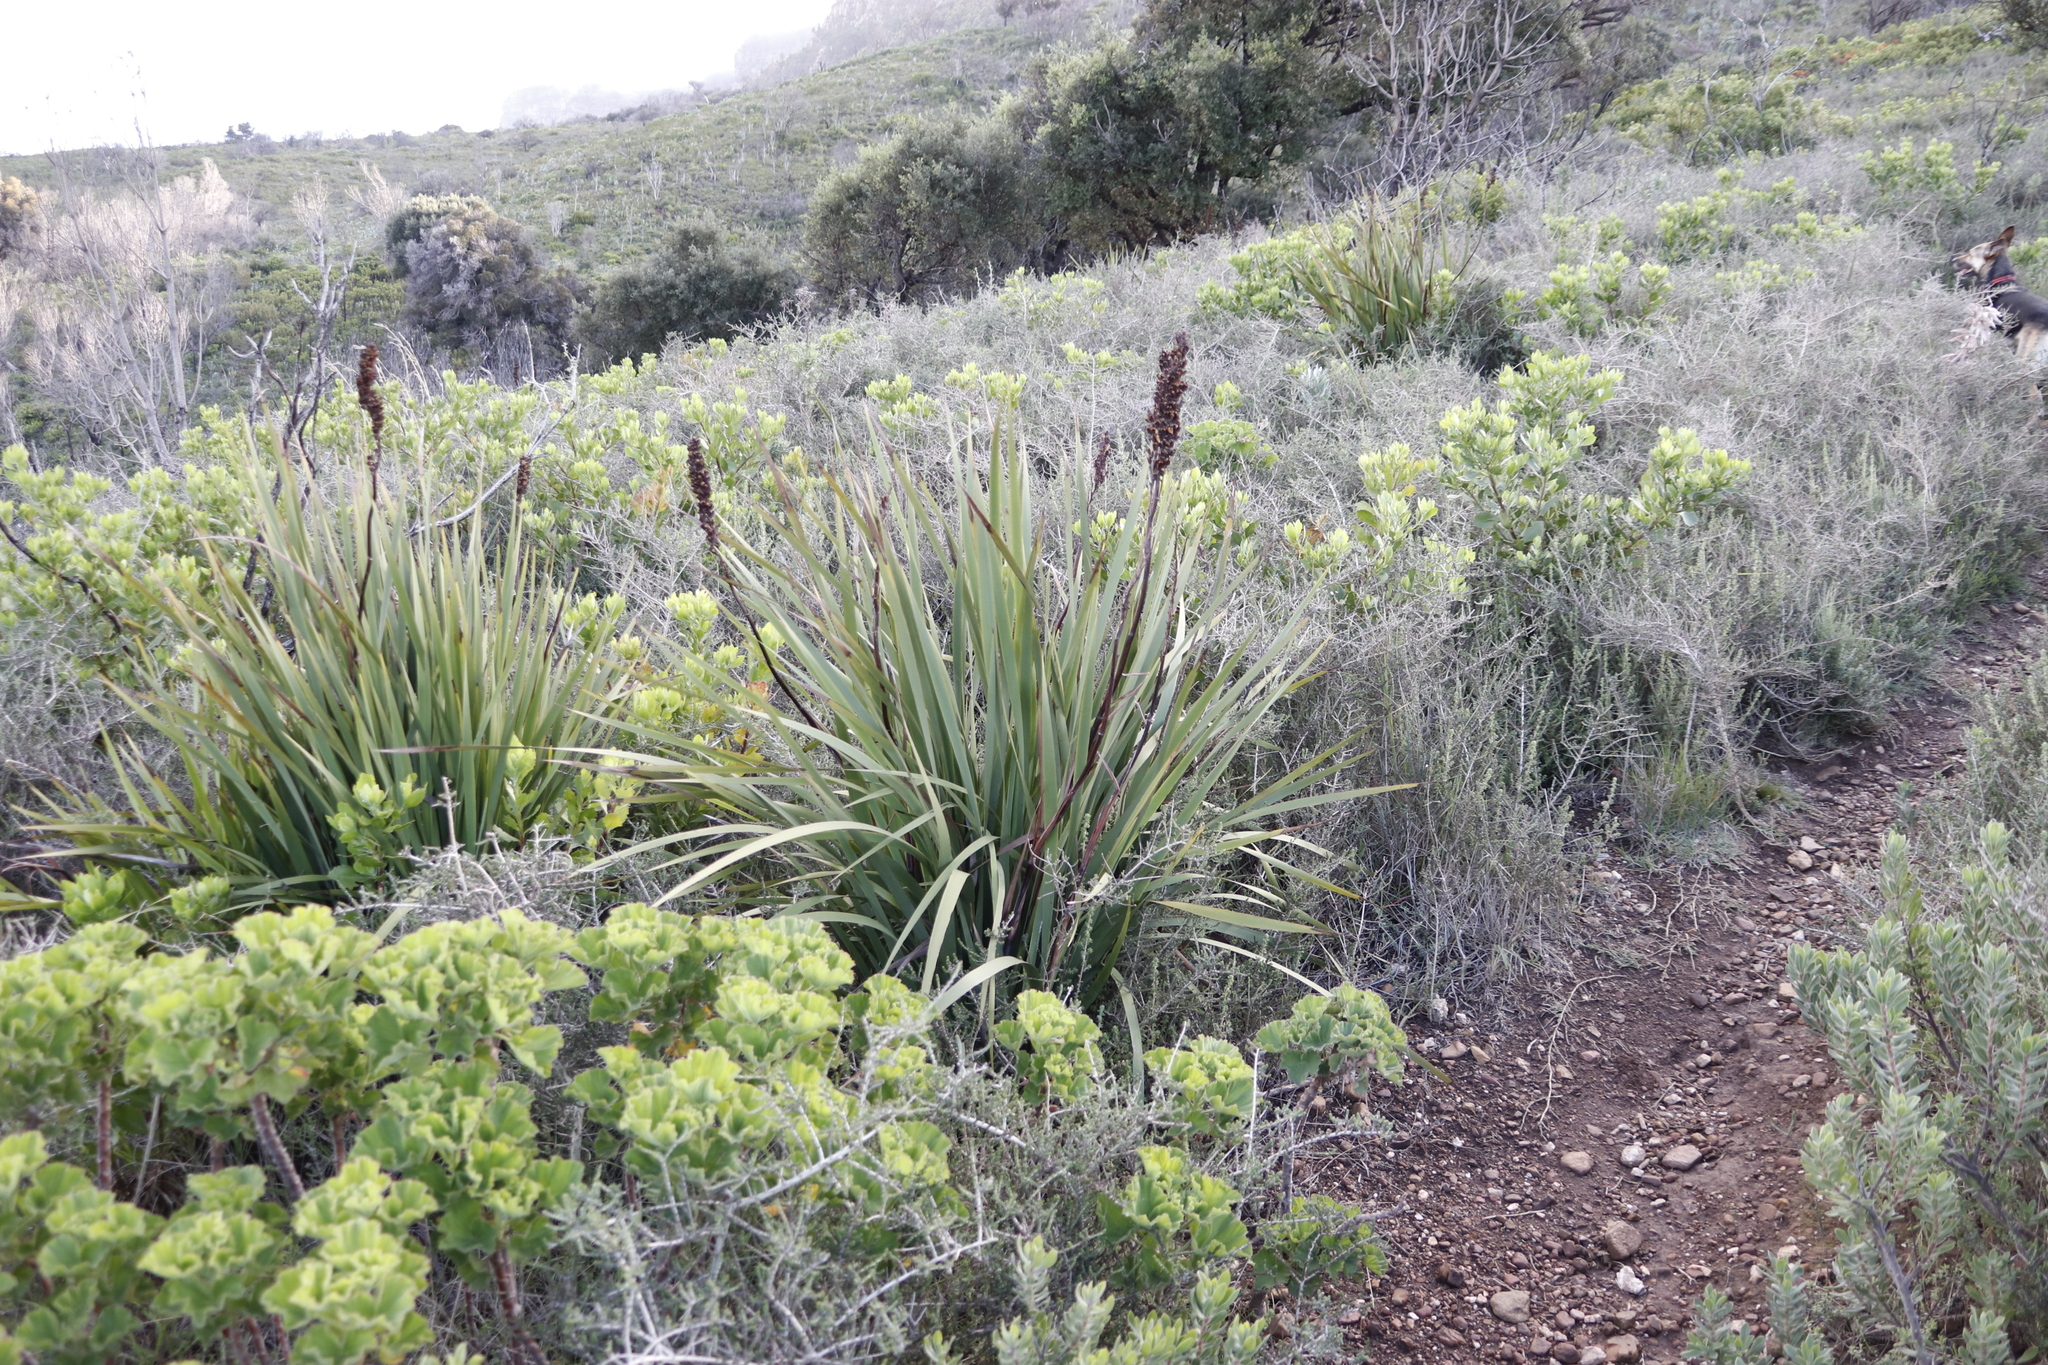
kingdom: Plantae
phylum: Tracheophyta
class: Liliopsida
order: Asparagales
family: Iridaceae
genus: Aristea
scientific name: Aristea capitata
